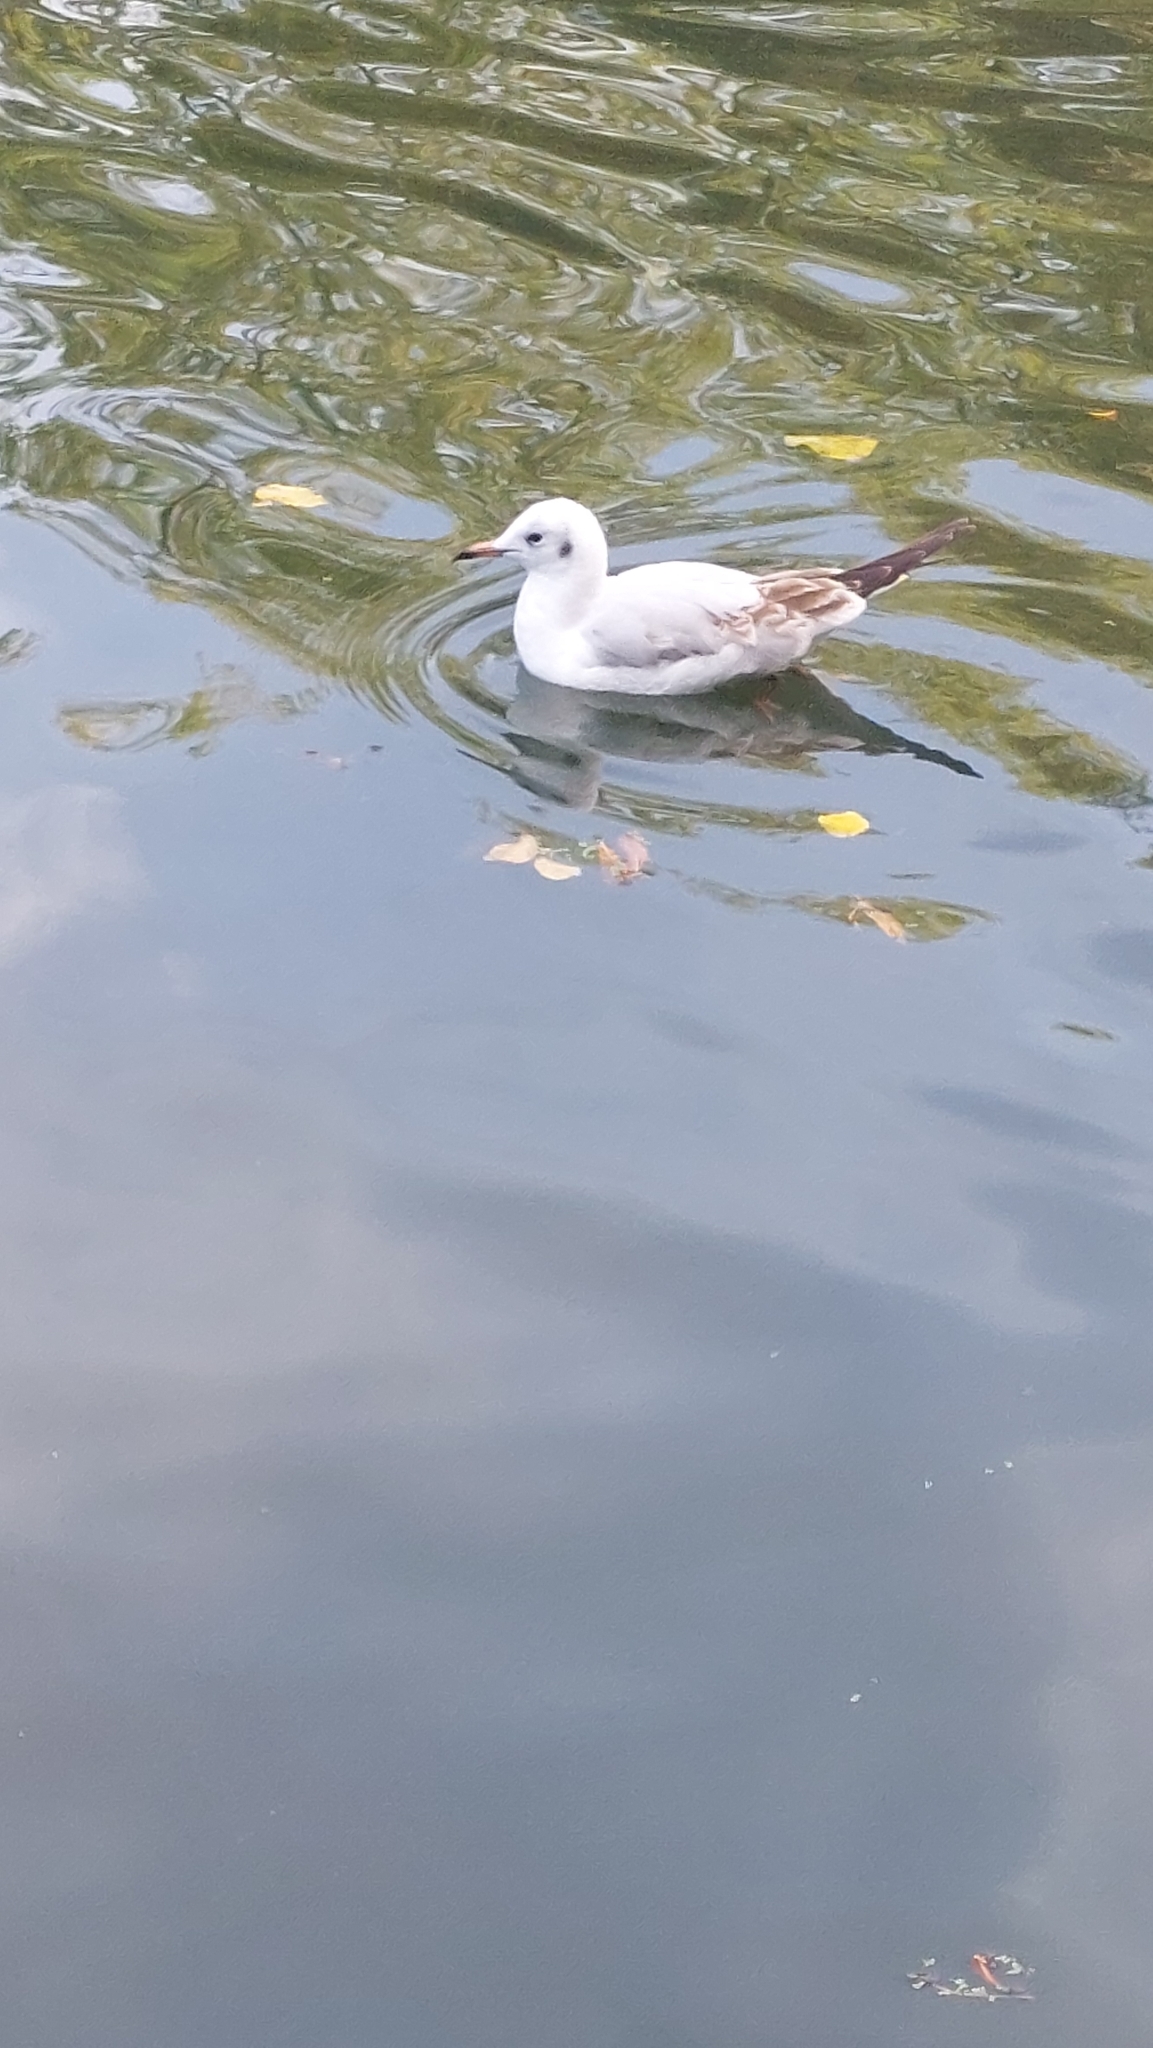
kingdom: Animalia
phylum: Chordata
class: Aves
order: Charadriiformes
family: Laridae
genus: Chroicocephalus
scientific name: Chroicocephalus ridibundus
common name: Black-headed gull
